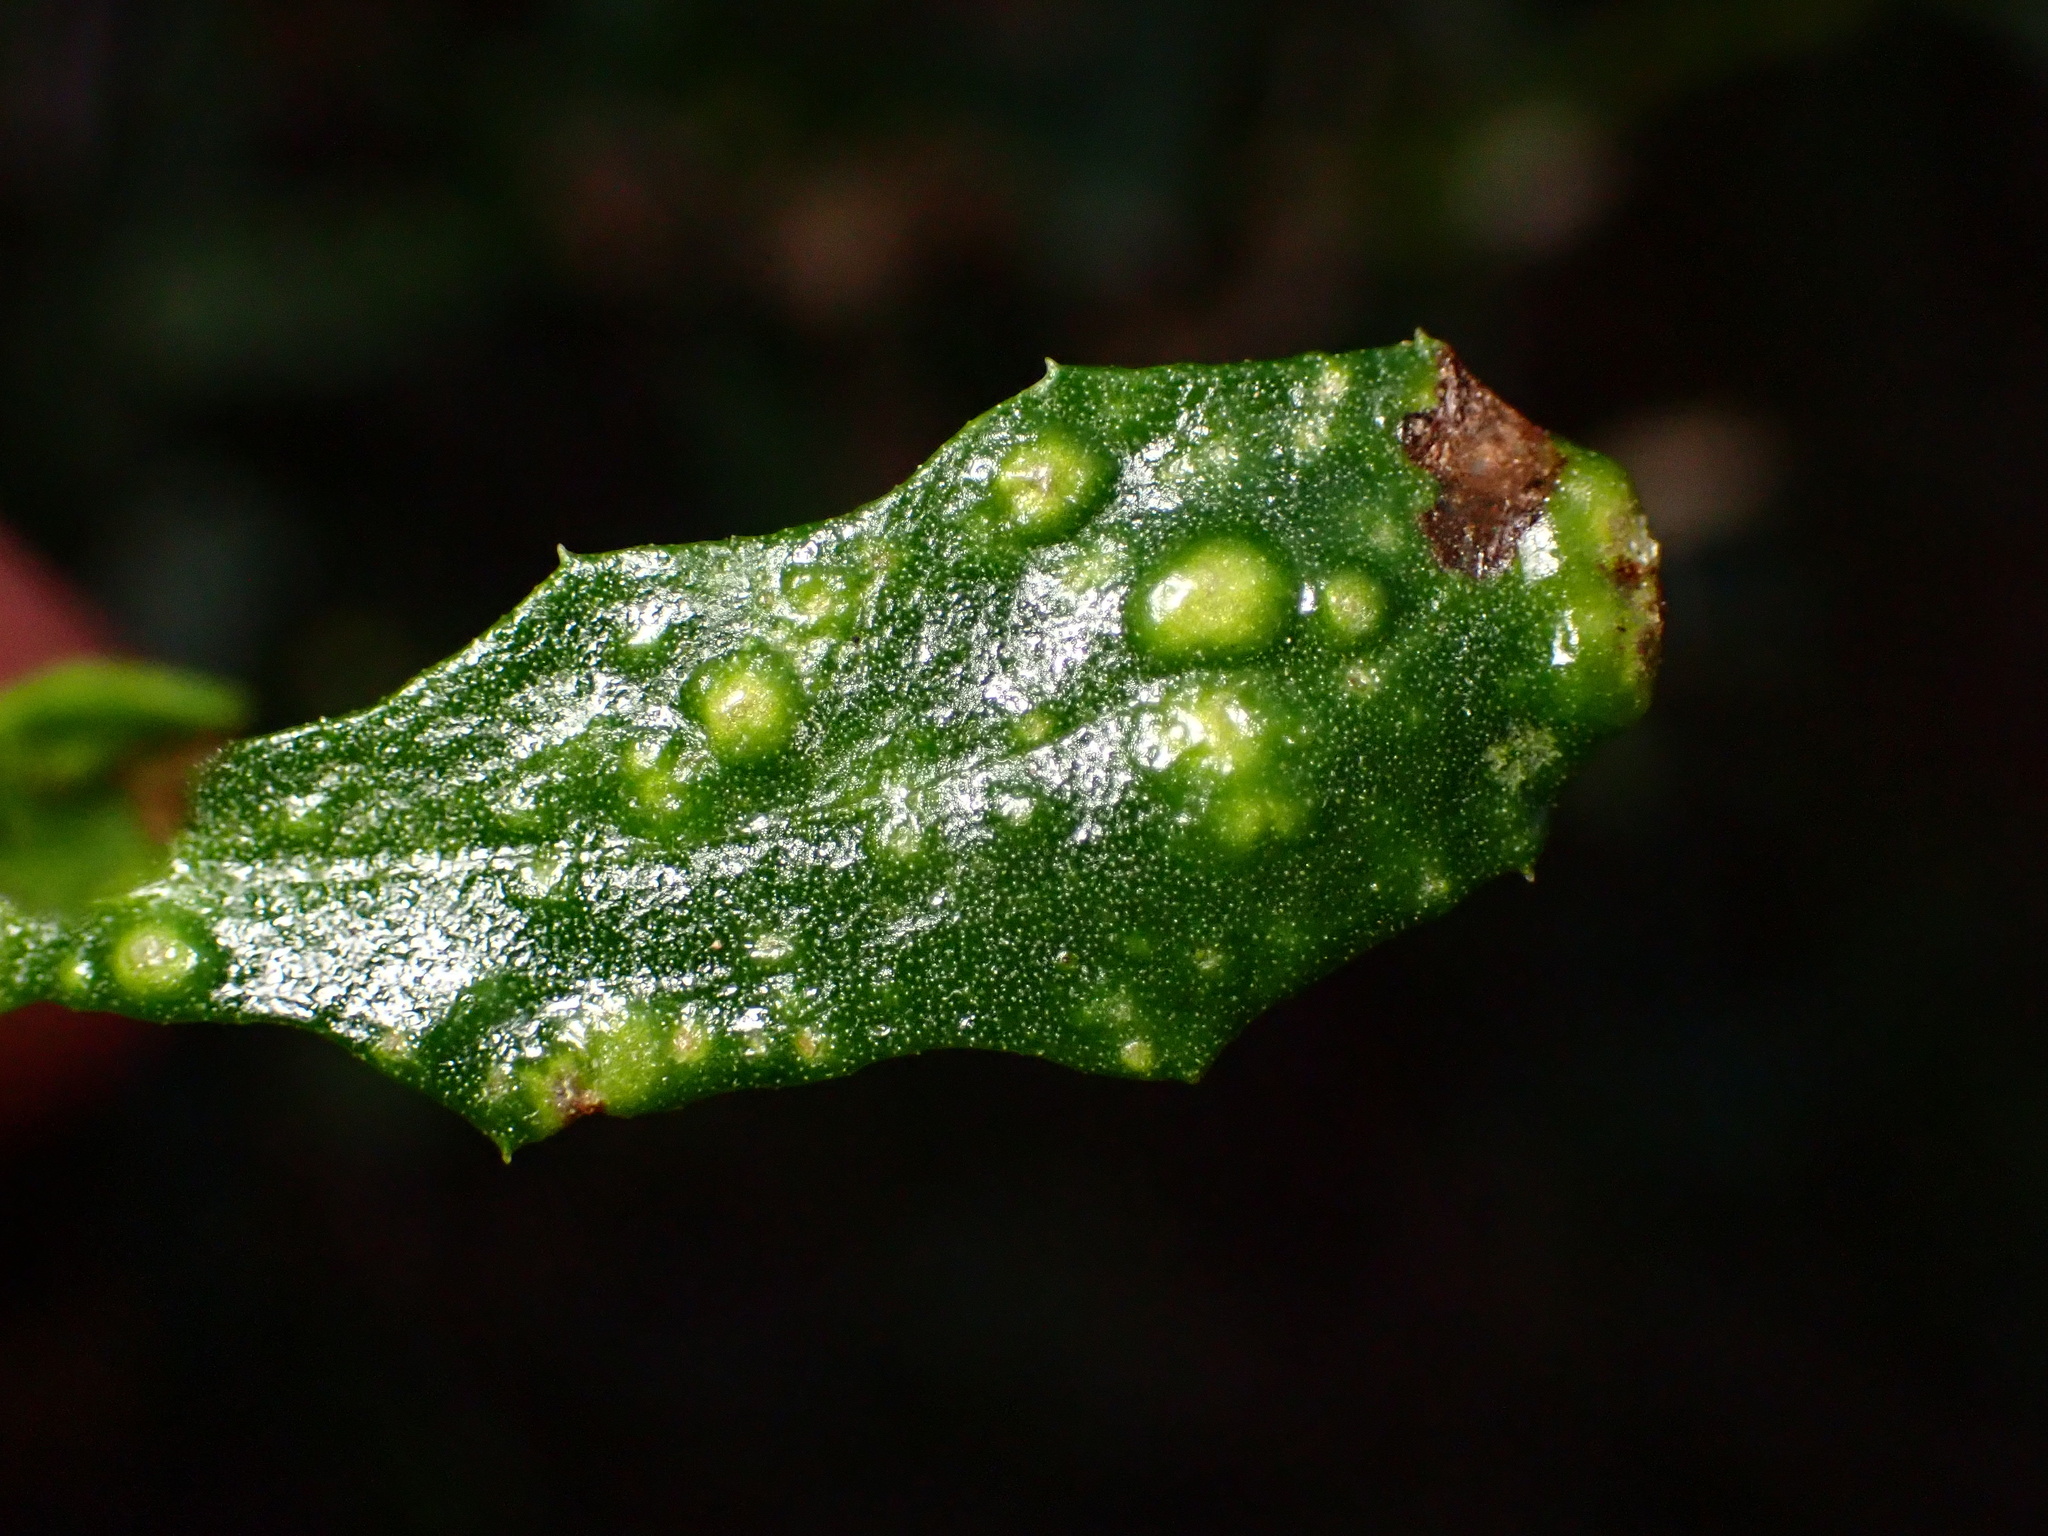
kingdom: Animalia
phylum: Arthropoda
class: Arachnida
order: Trombidiformes
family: Eriophyidae
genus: Aceria
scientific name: Aceria
